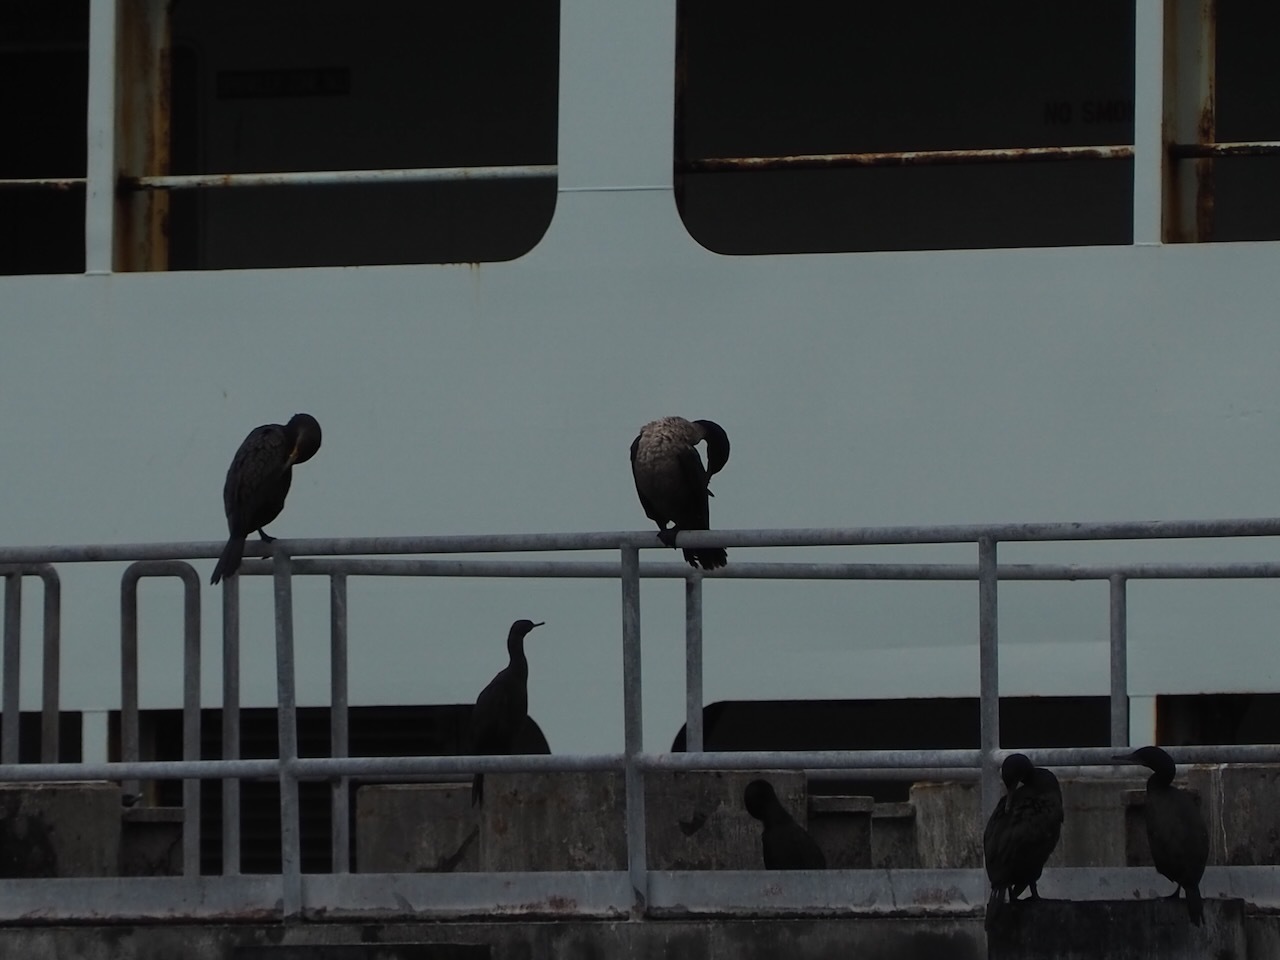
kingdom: Animalia
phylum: Chordata
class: Aves
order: Suliformes
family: Phalacrocoracidae
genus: Phalacrocorax
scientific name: Phalacrocorax auritus
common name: Double-crested cormorant
